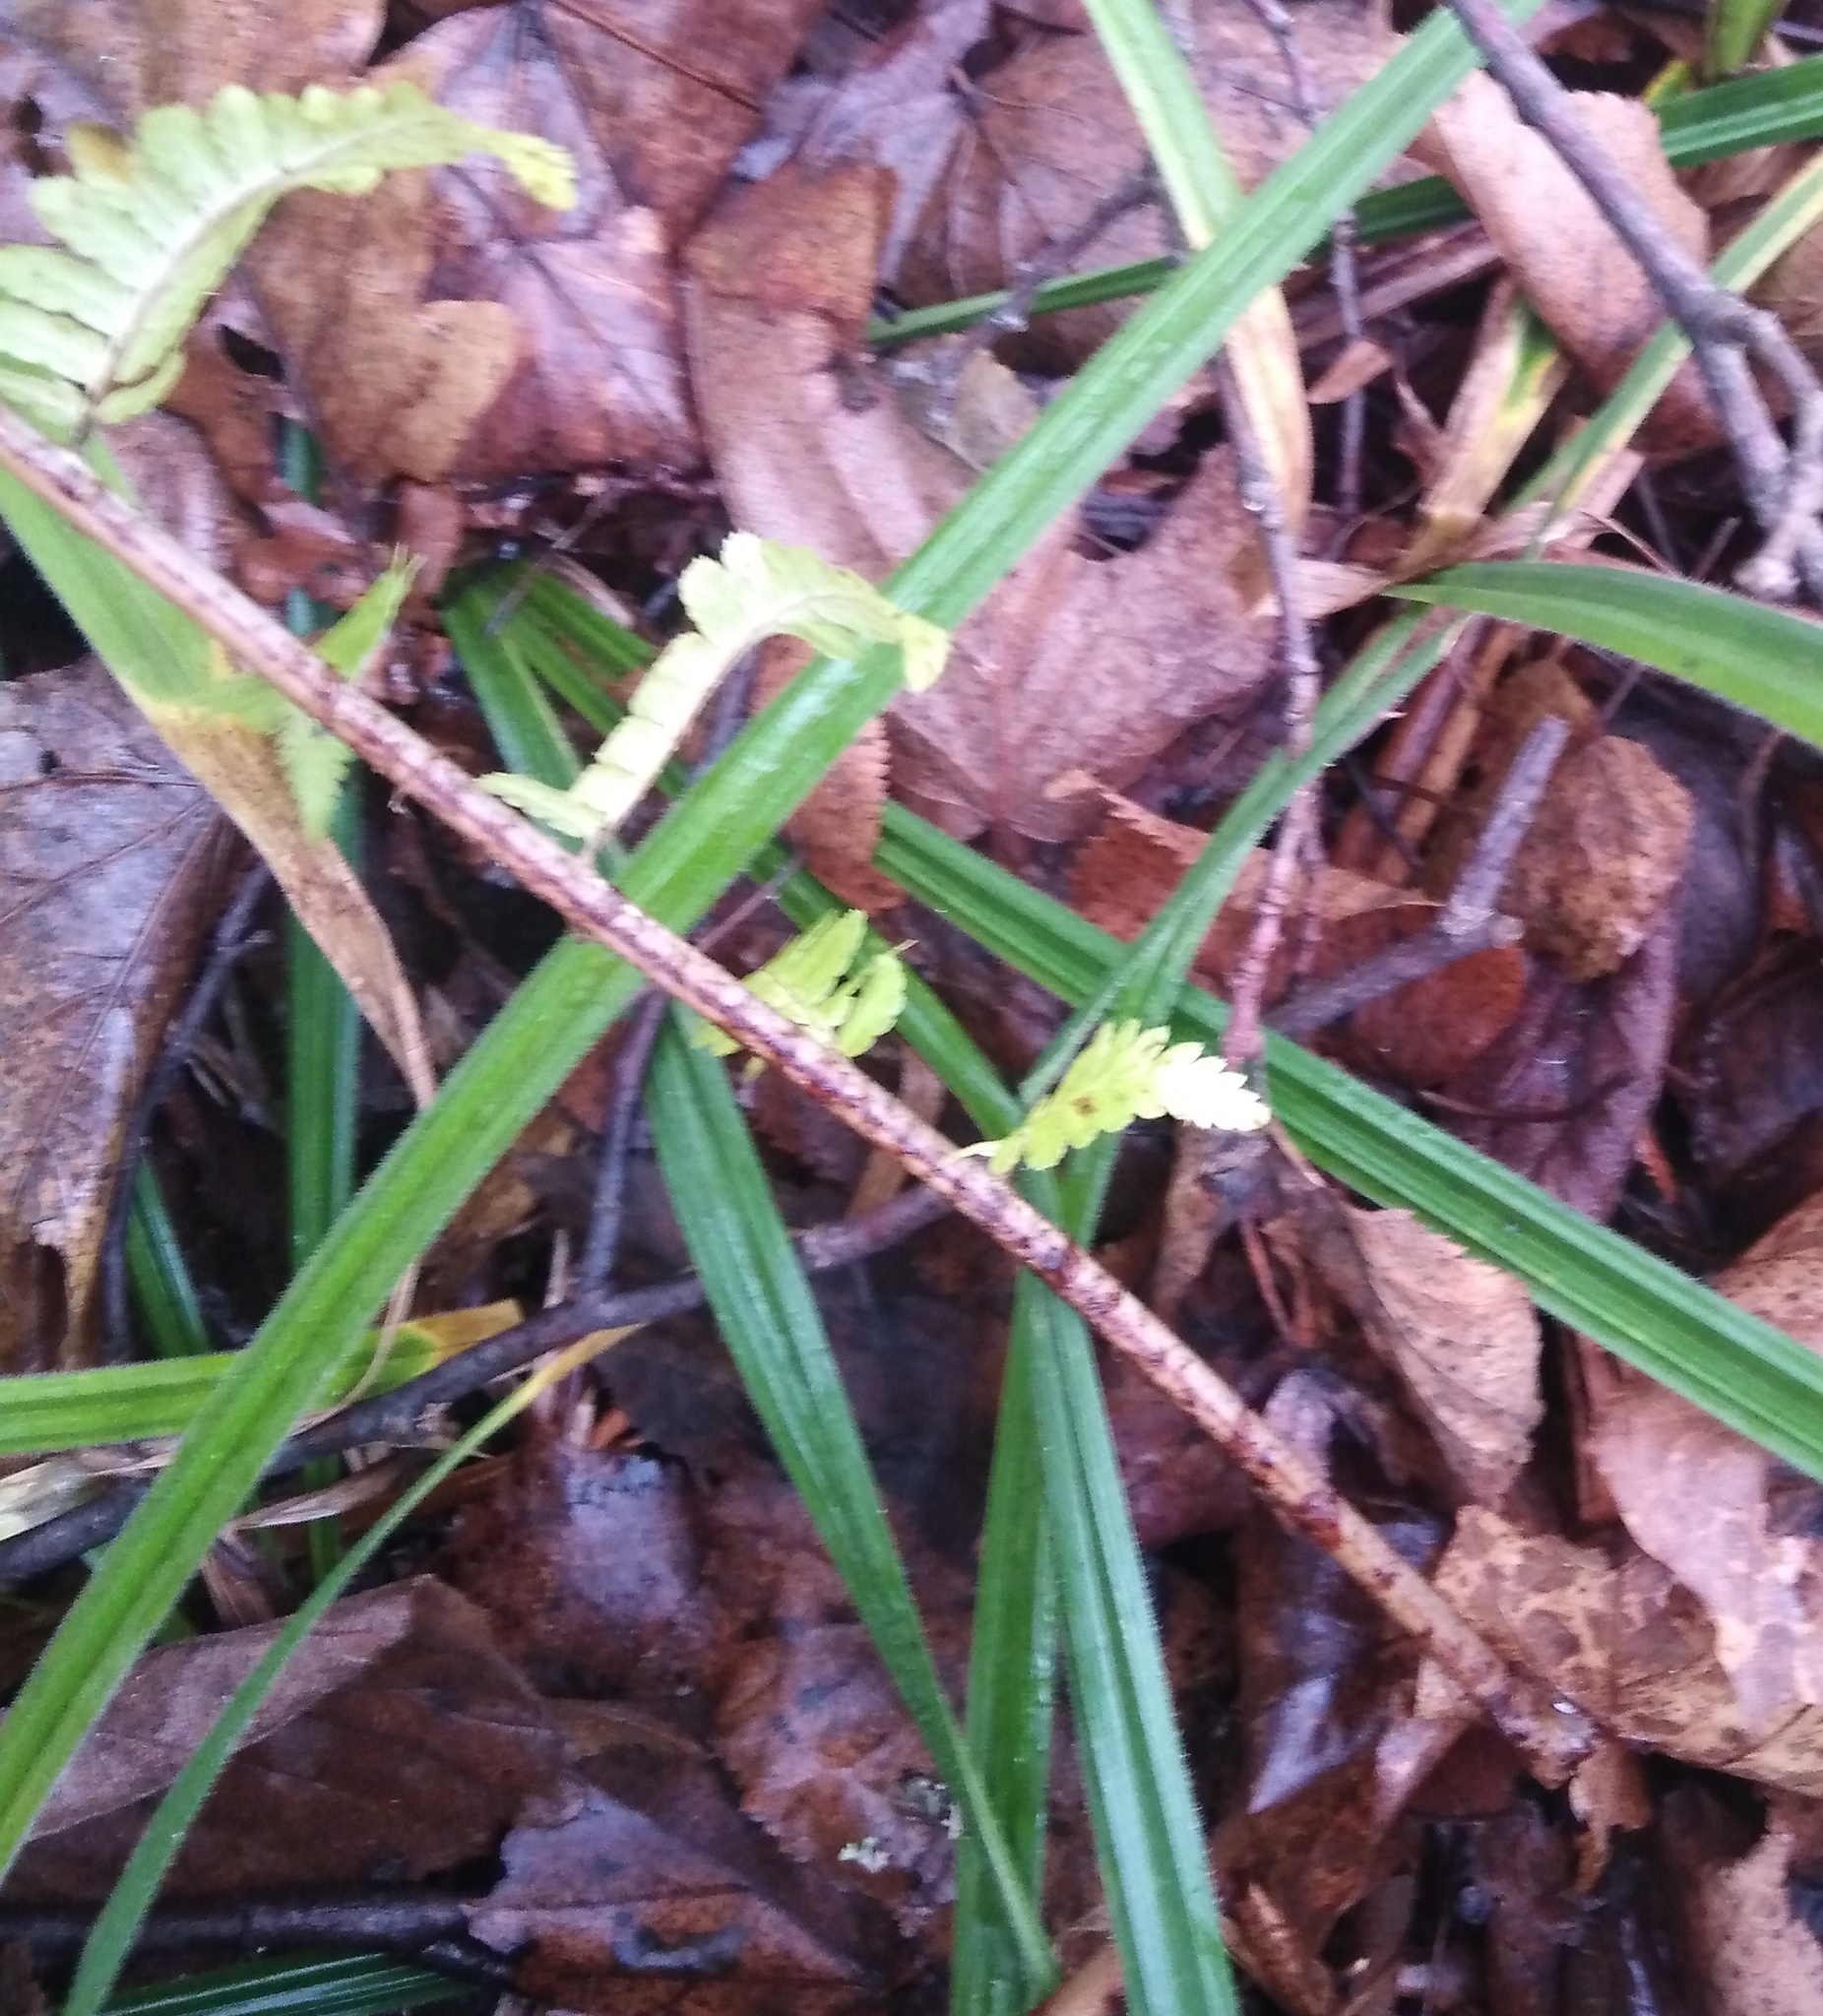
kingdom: Plantae
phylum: Tracheophyta
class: Polypodiopsida
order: Polypodiales
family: Dryopteridaceae
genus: Dryopteris
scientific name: Dryopteris filix-mas
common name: Male fern
